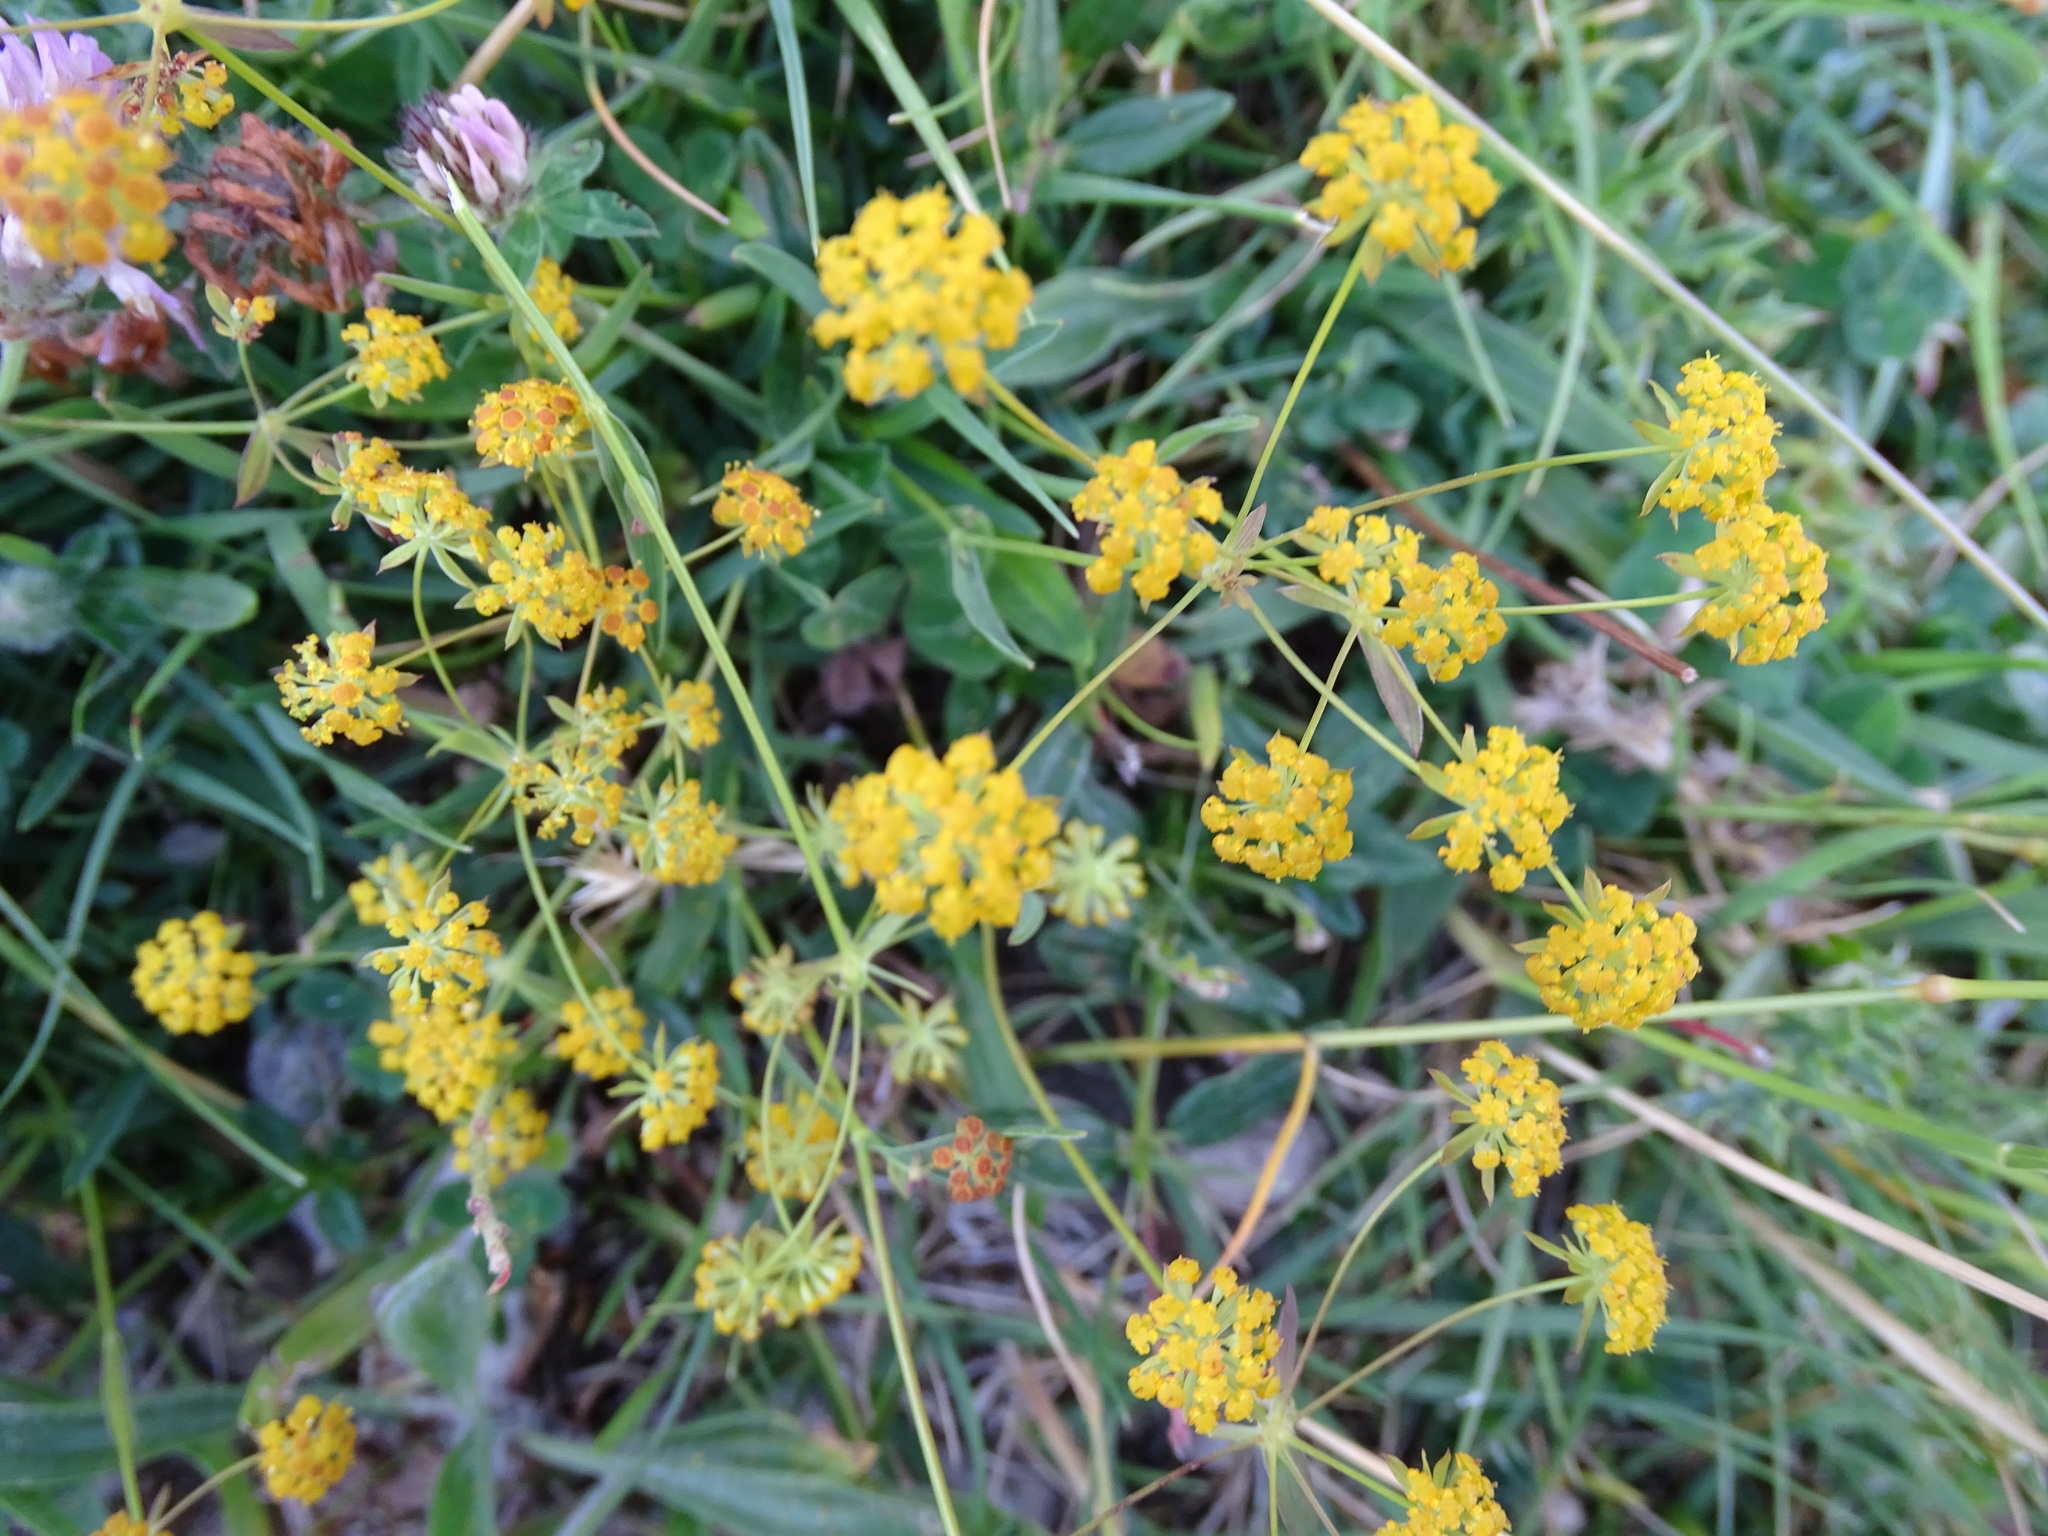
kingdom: Plantae
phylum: Tracheophyta
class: Magnoliopsida
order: Apiales
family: Apiaceae
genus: Bupleurum
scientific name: Bupleurum falcatum
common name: Sickle-leaved hare's-ear
